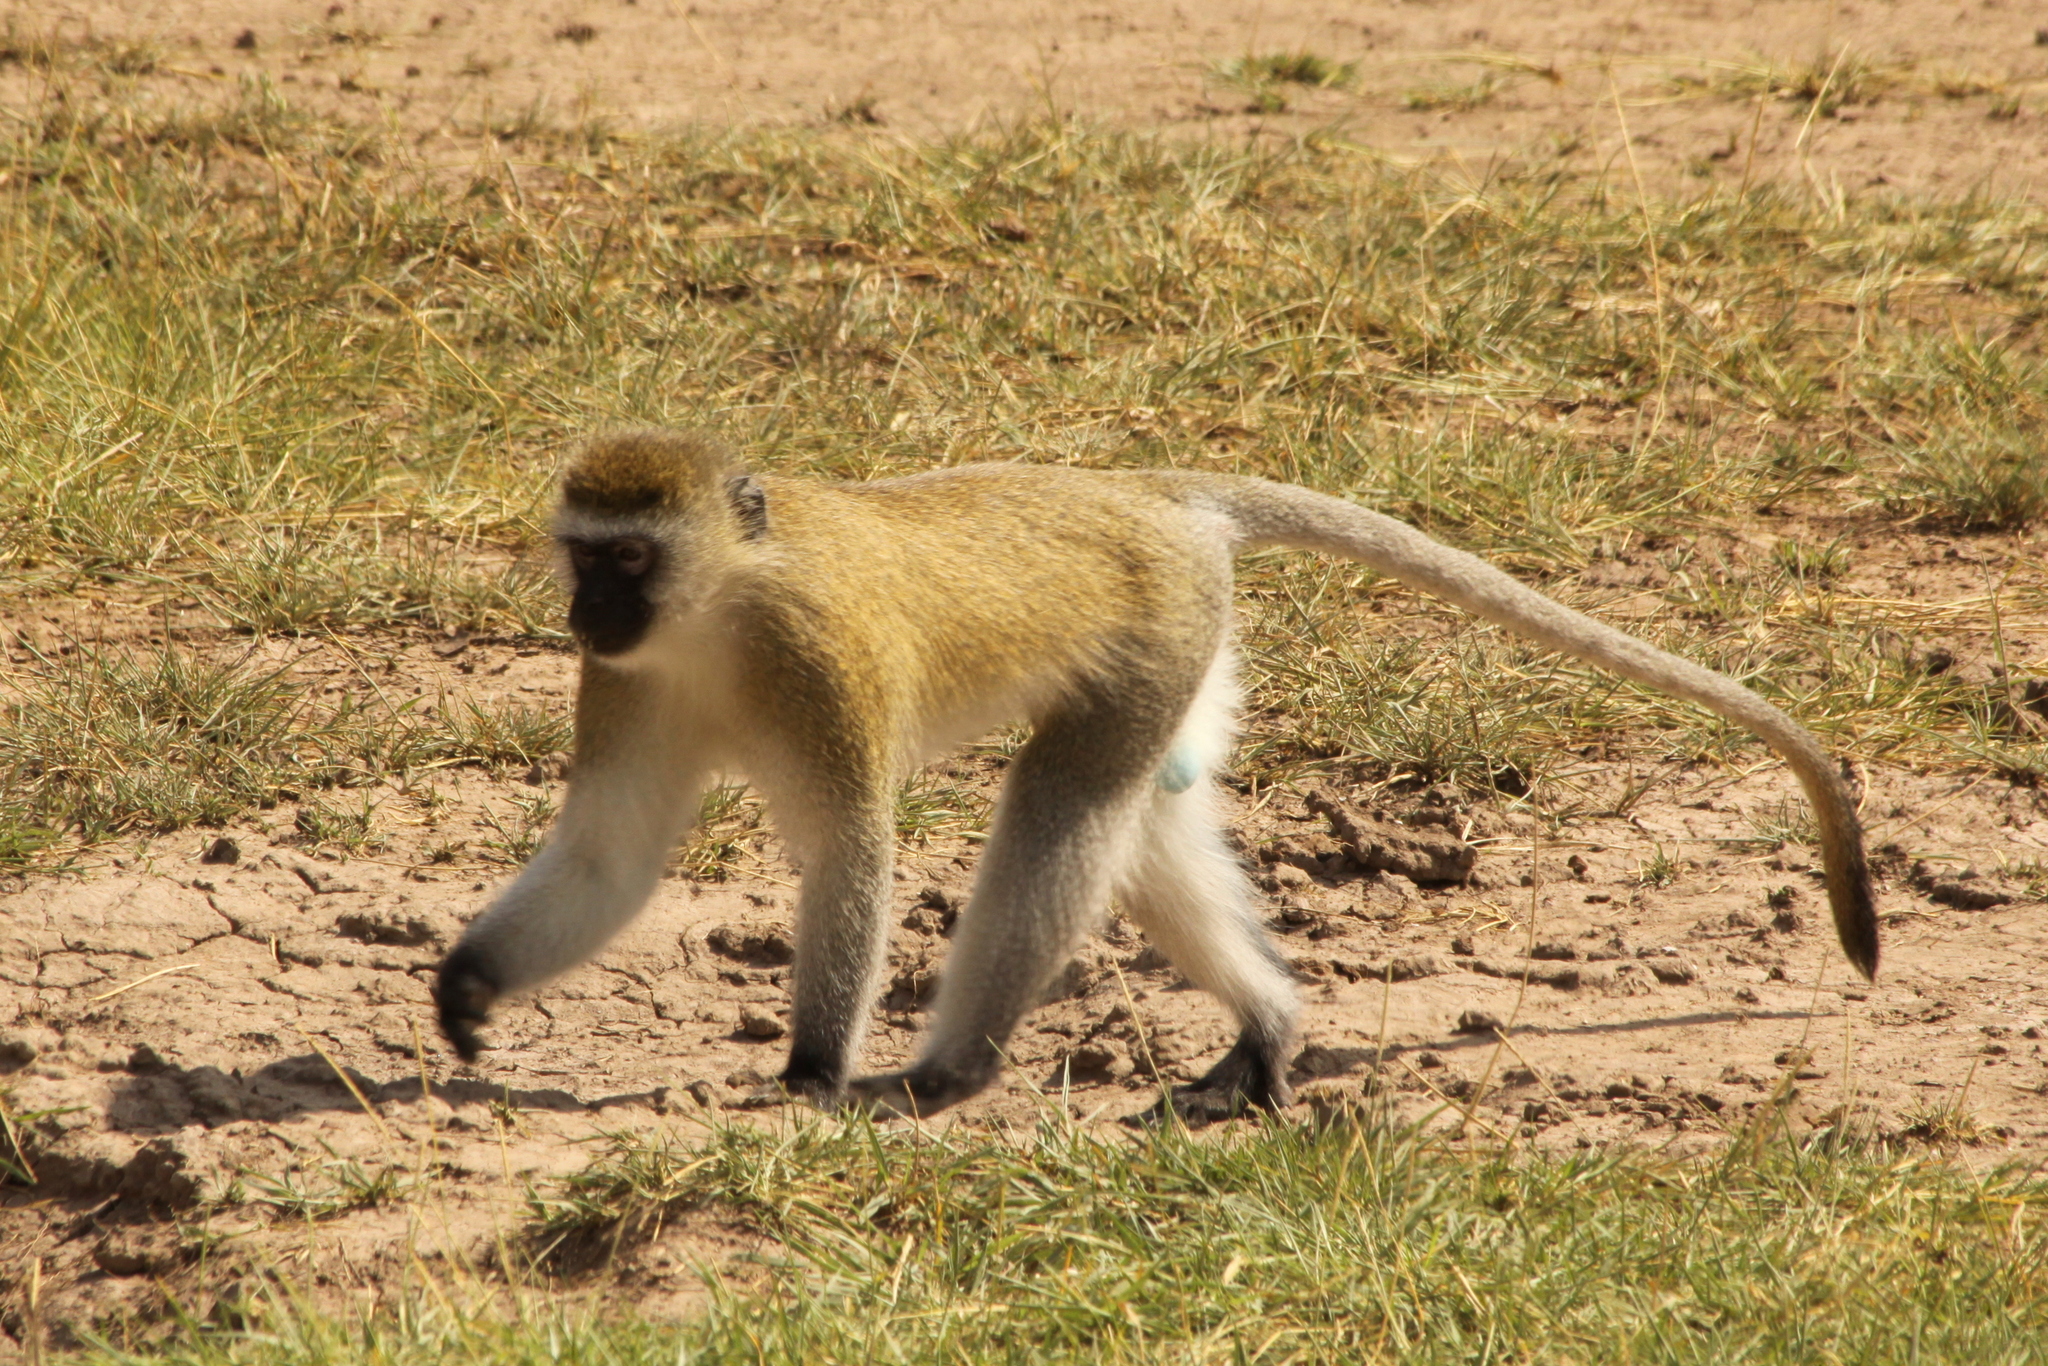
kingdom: Animalia
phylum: Chordata
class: Mammalia
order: Primates
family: Cercopithecidae
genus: Chlorocebus
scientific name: Chlorocebus pygerythrus
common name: Vervet monkey
